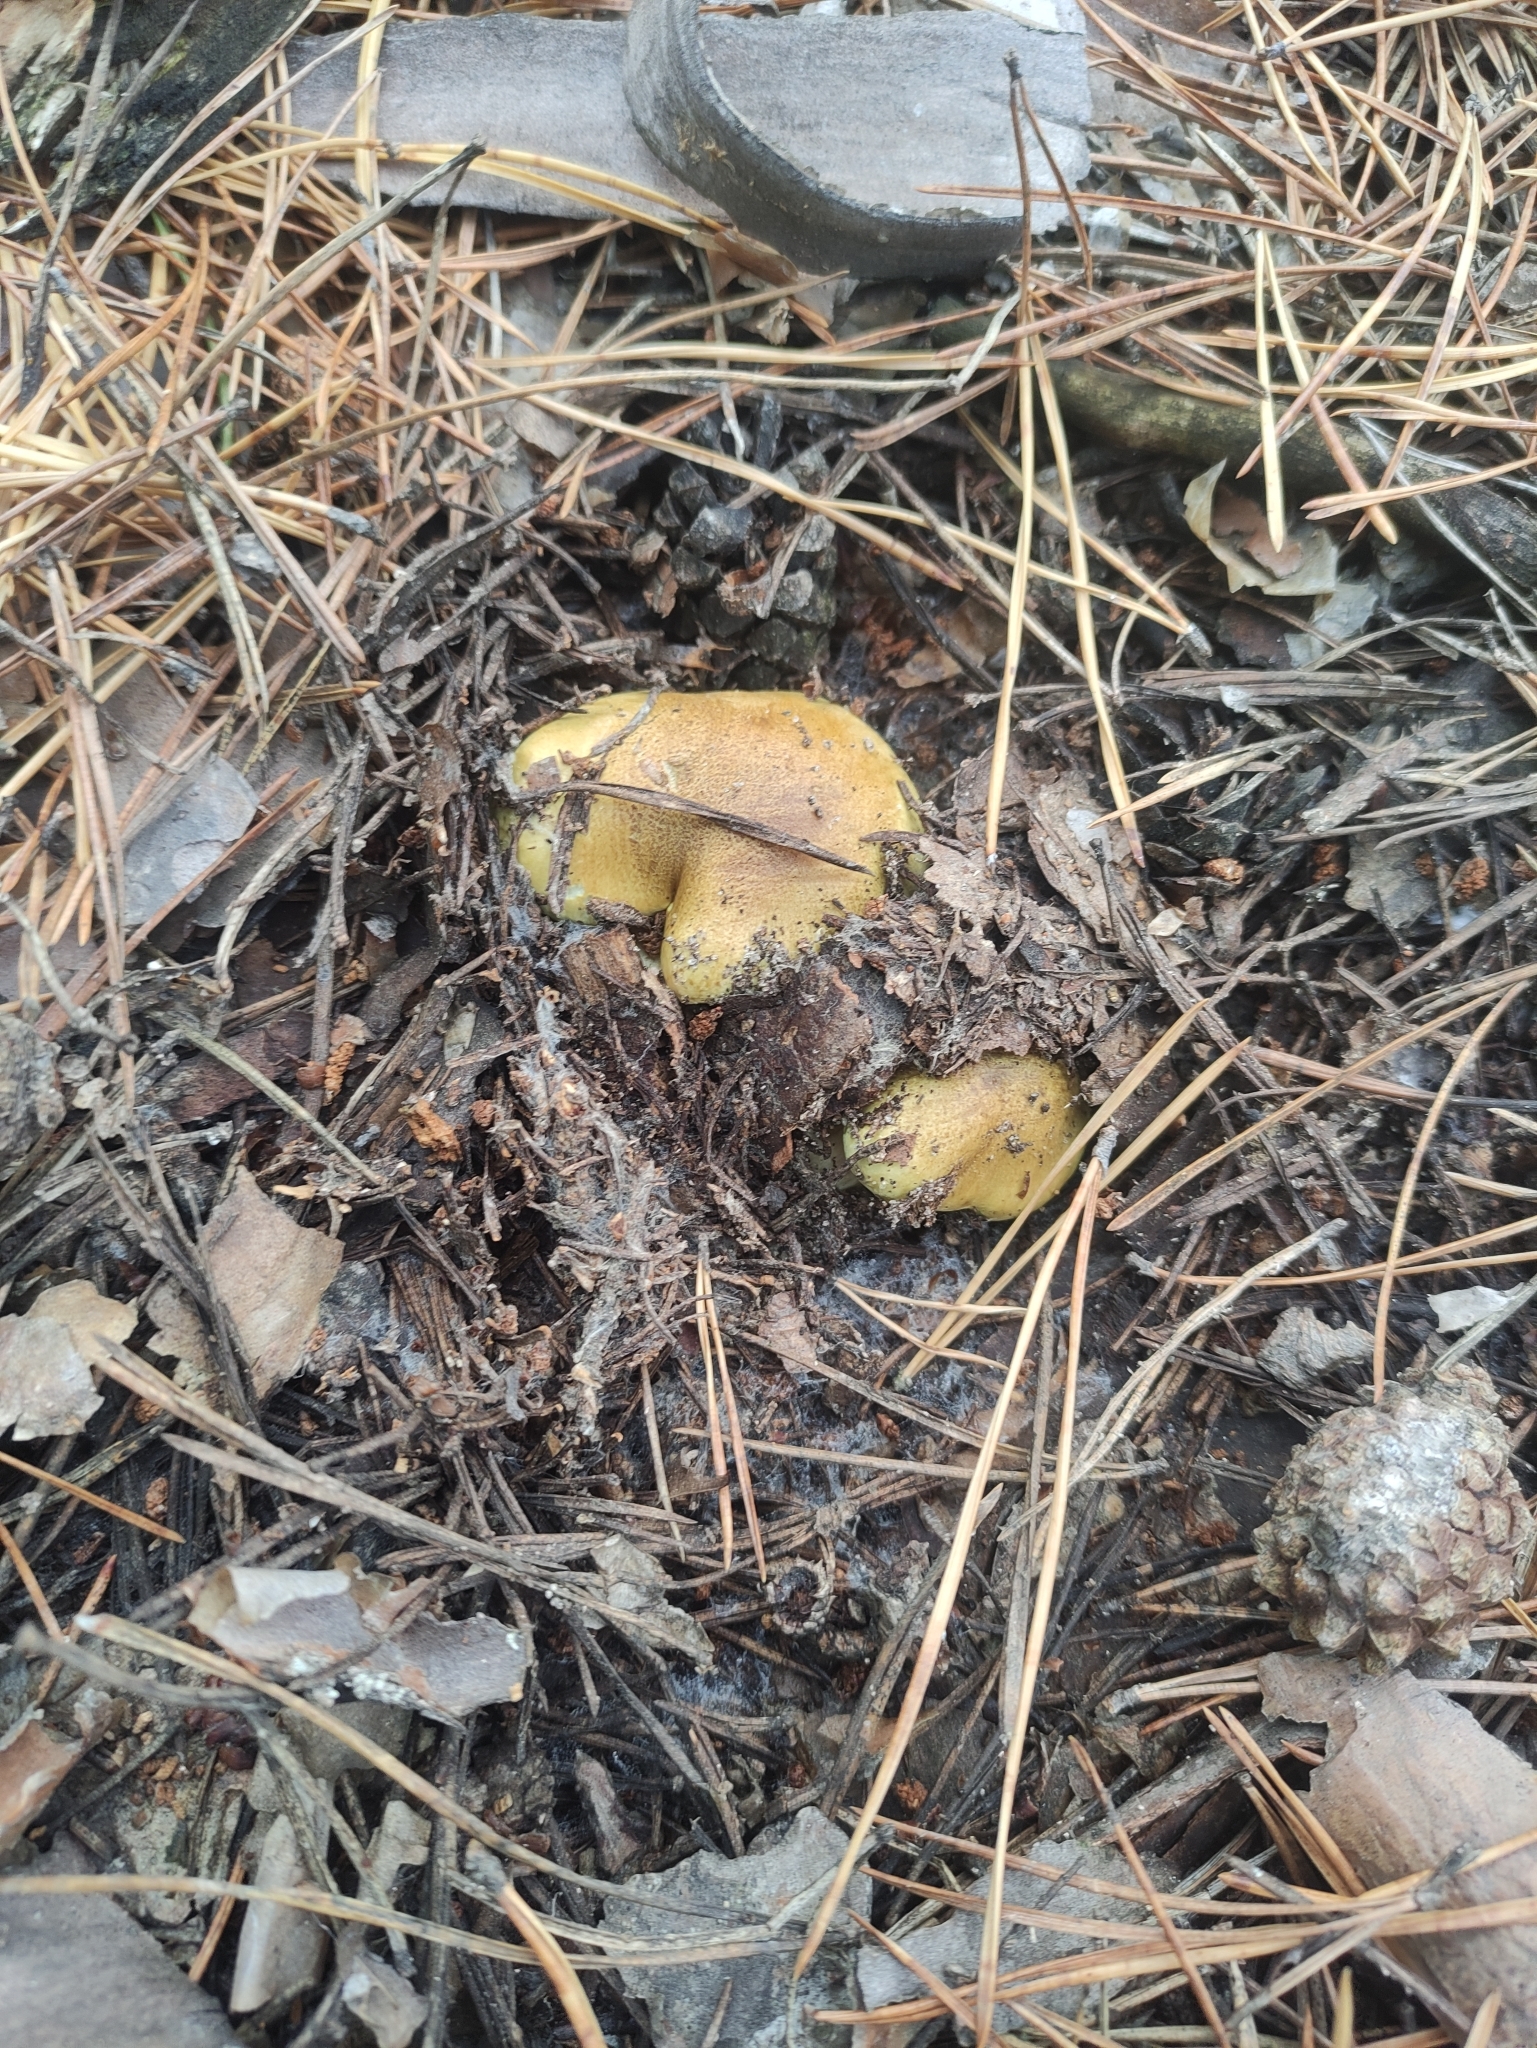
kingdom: Fungi
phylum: Basidiomycota
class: Agaricomycetes
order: Agaricales
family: Tricholomataceae
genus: Tricholoma
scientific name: Tricholoma equestre
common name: Yellow knight
